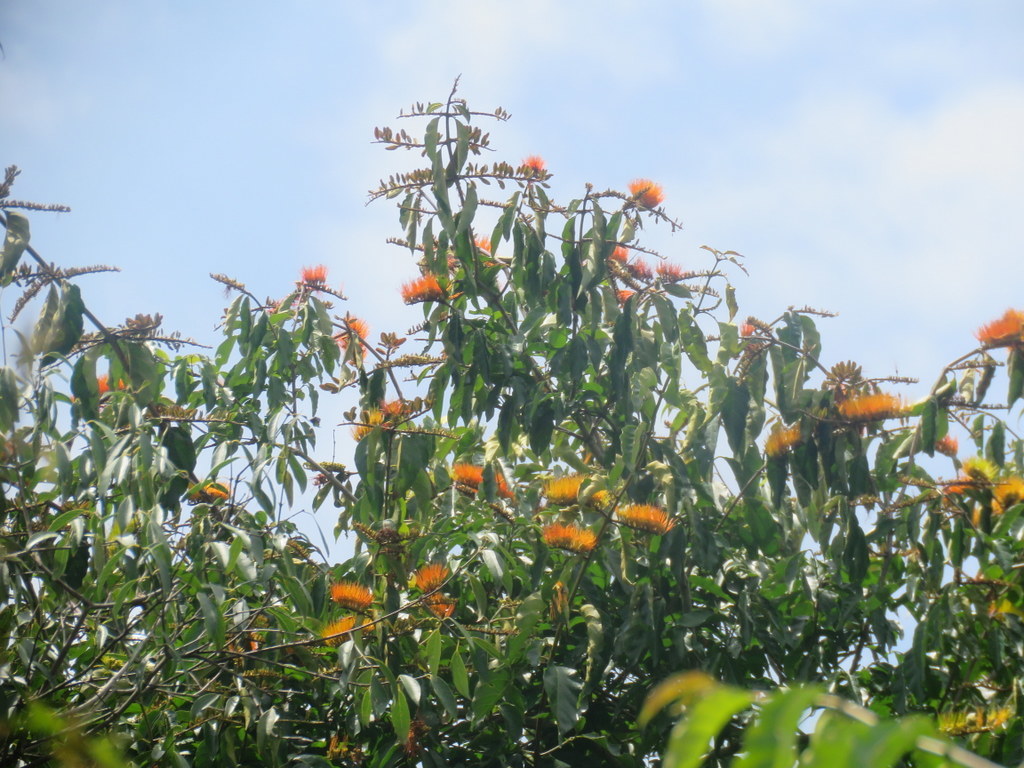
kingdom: Plantae
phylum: Tracheophyta
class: Magnoliopsida
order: Myrtales
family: Combretaceae
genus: Combretum
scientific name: Combretum fruticosum
